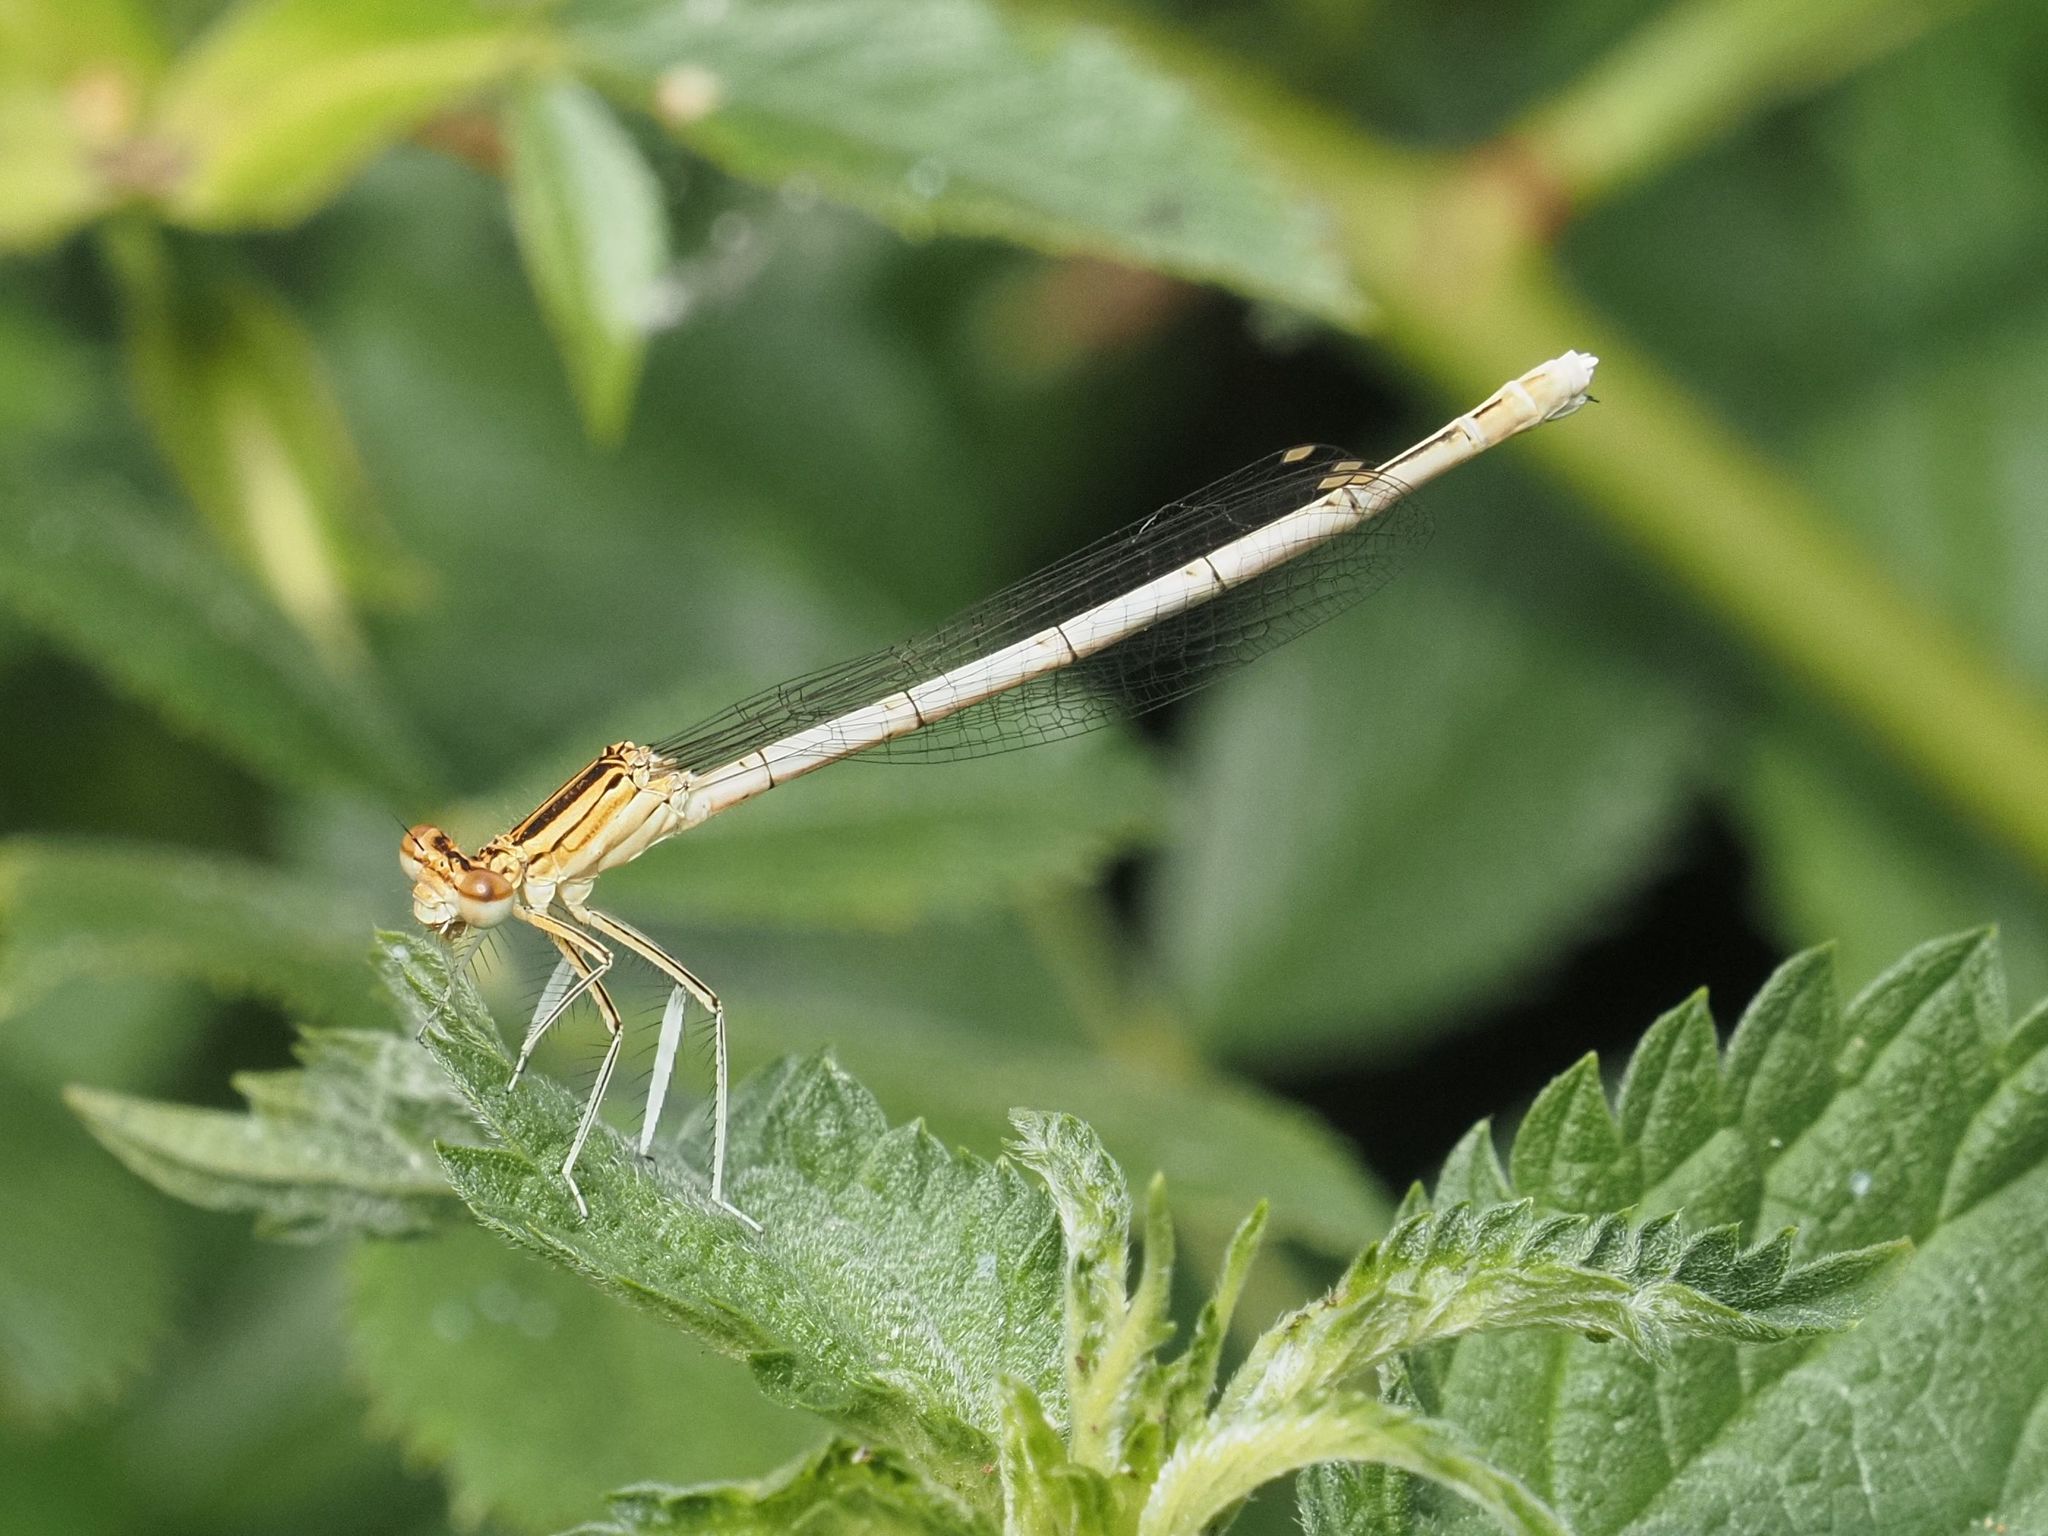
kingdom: Animalia
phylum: Arthropoda
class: Insecta
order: Odonata
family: Platycnemididae
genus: Platycnemis
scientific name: Platycnemis pennipes
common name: White-legged damselfly
